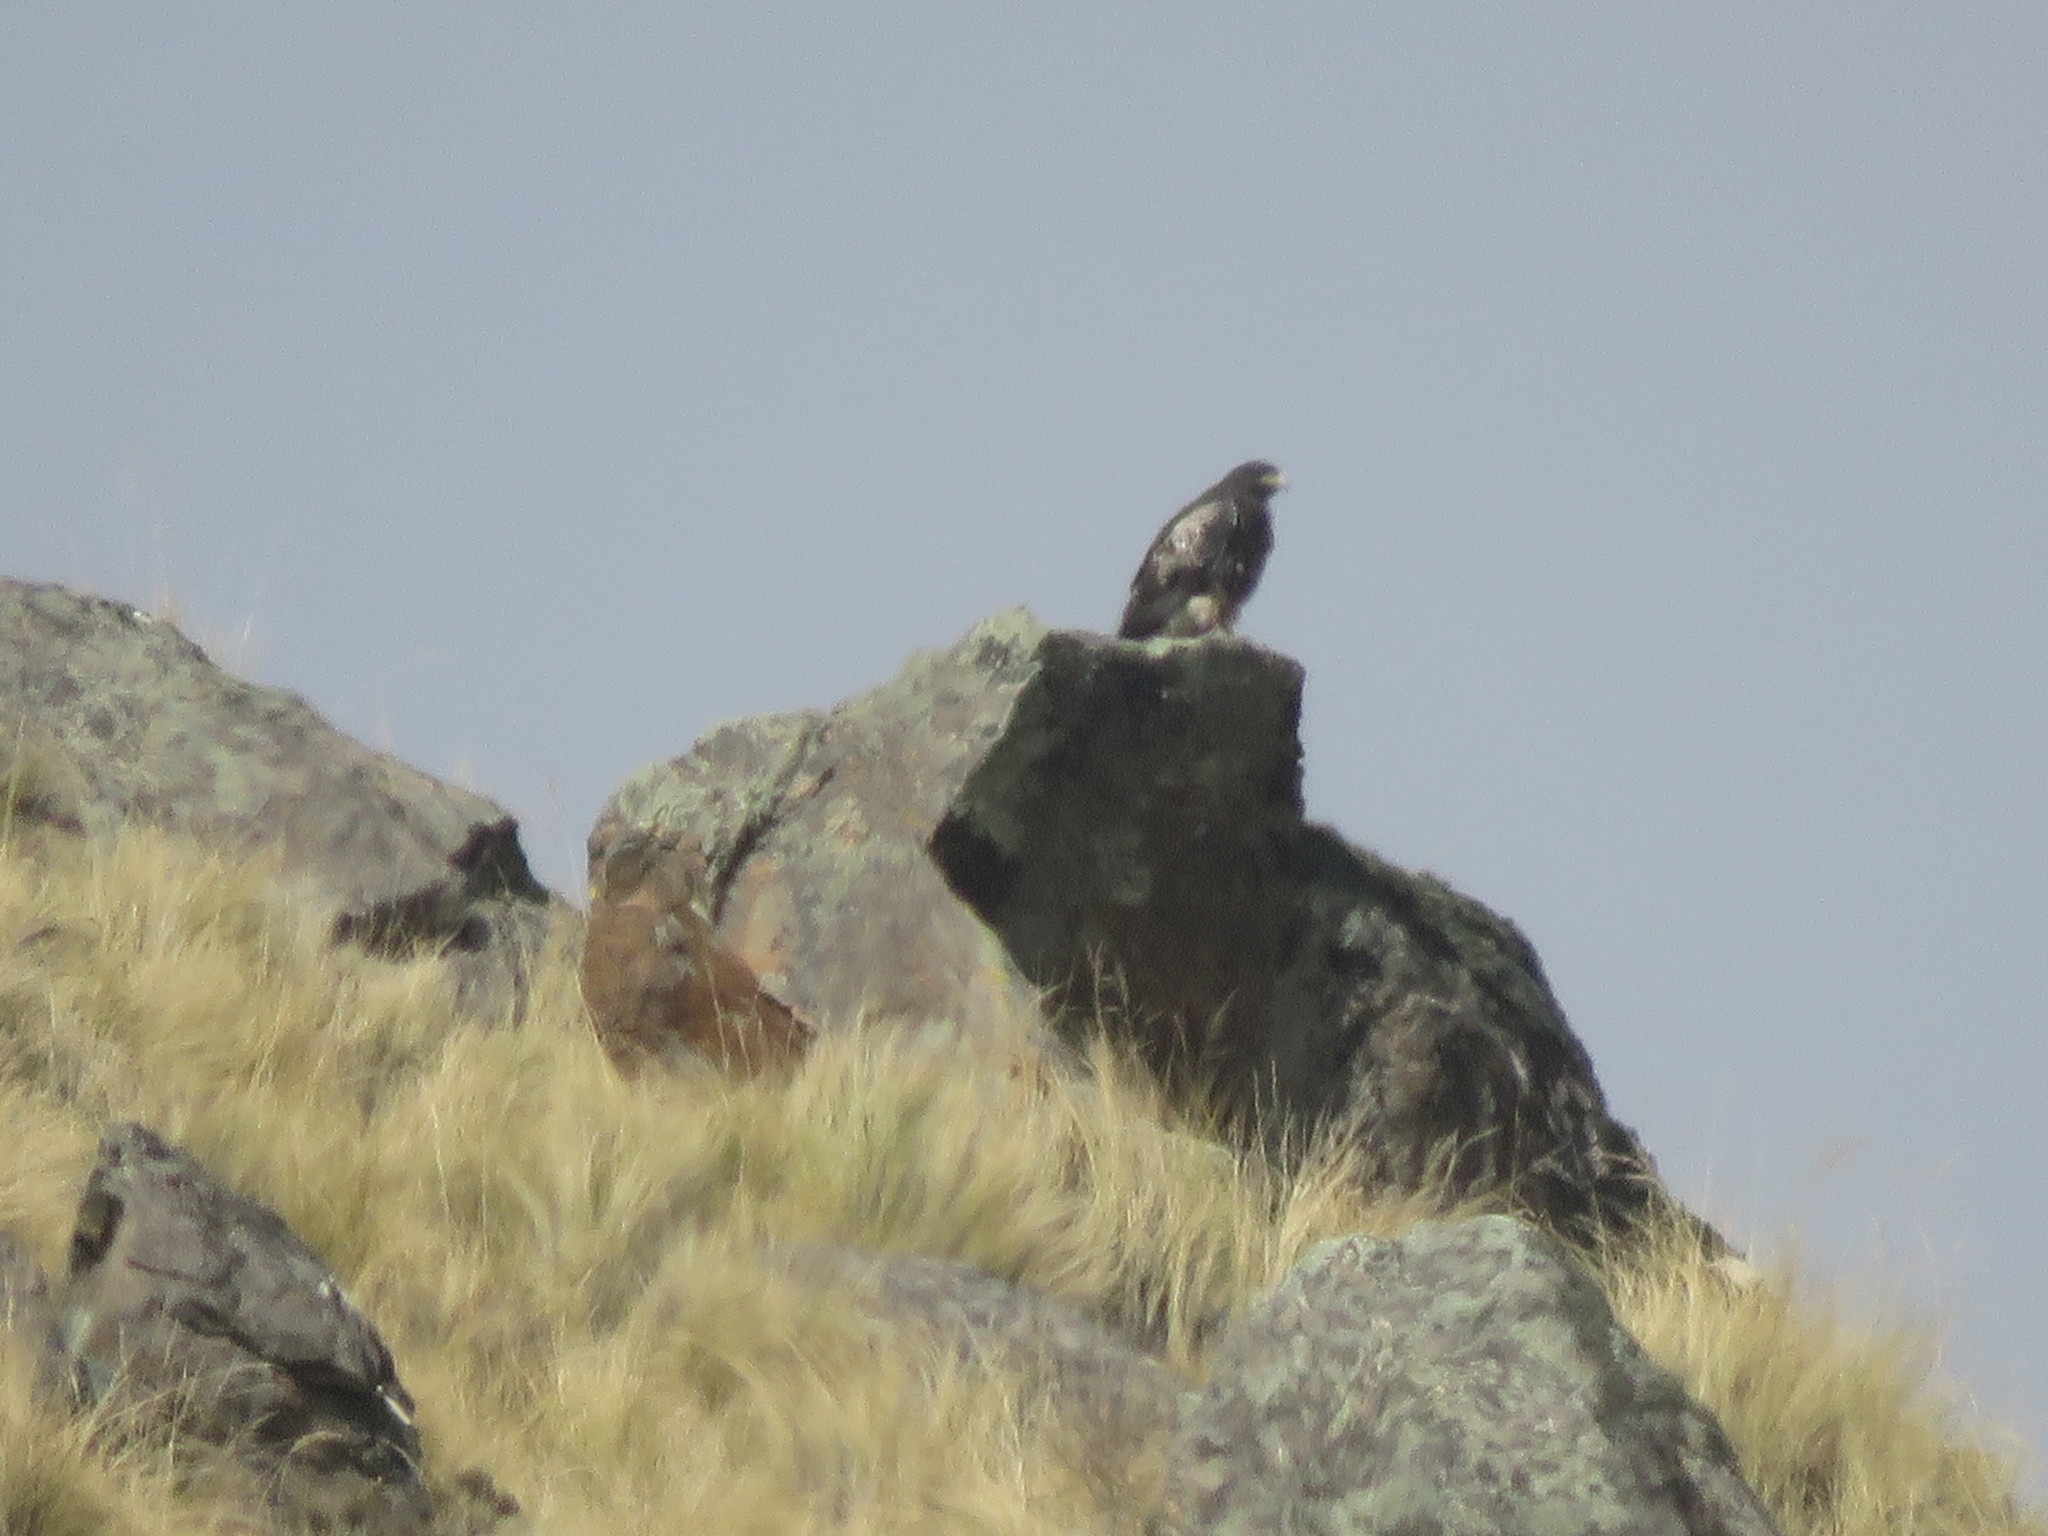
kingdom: Animalia
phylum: Chordata
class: Aves
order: Accipitriformes
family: Accipitridae
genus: Geranoaetus
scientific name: Geranoaetus melanoleucus
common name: Black-chested buzzard-eagle
